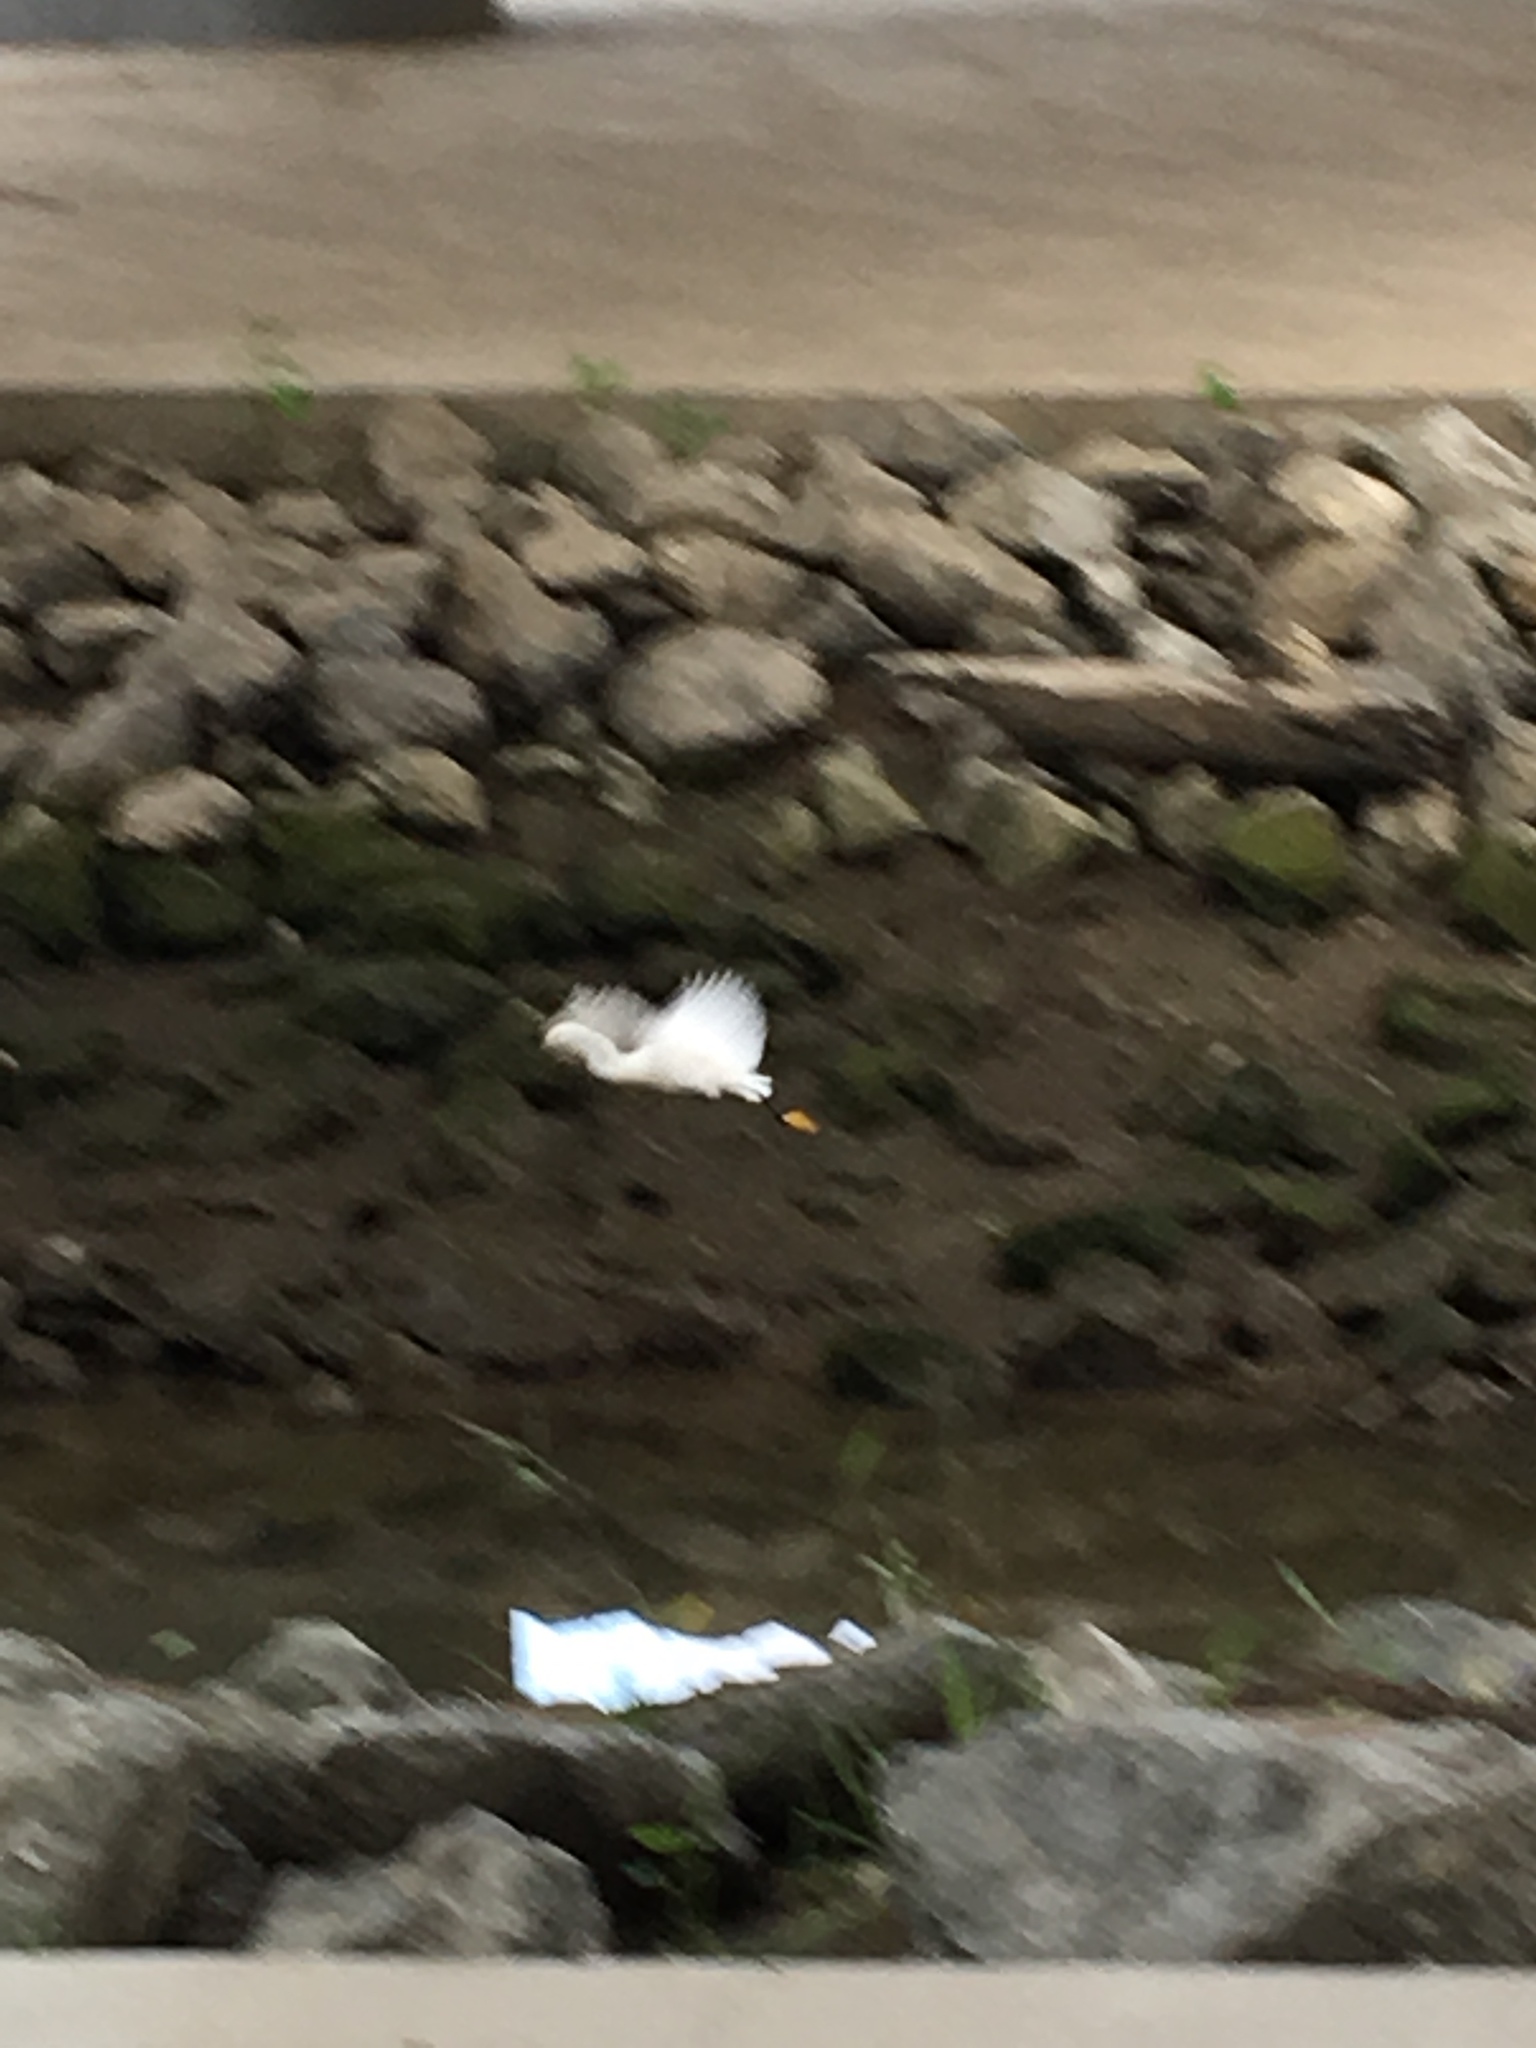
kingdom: Animalia
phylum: Chordata
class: Aves
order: Pelecaniformes
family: Ardeidae
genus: Egretta
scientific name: Egretta thula
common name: Snowy egret
